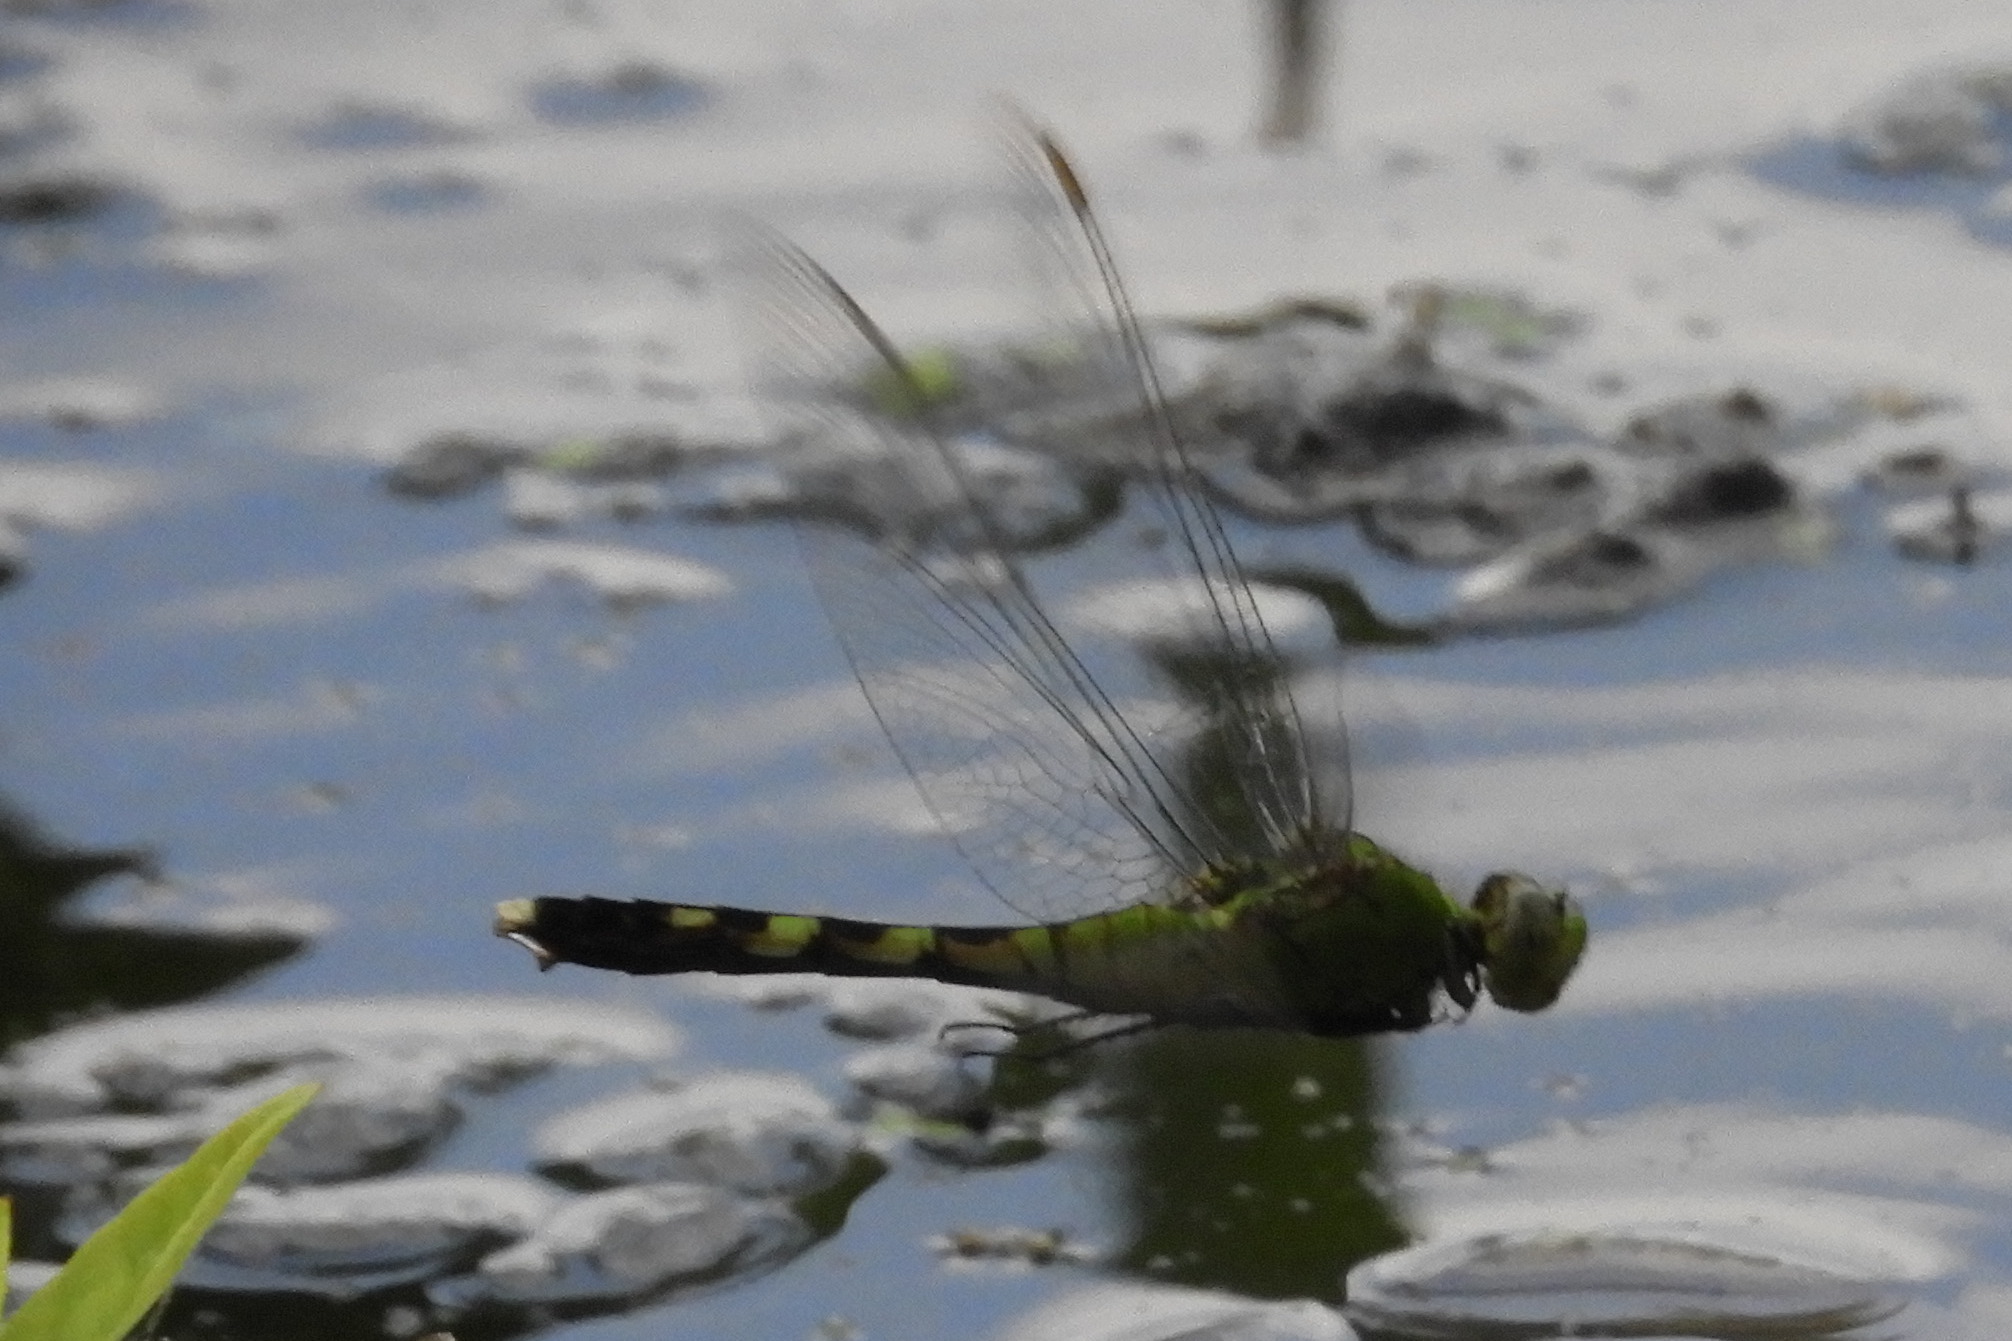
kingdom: Animalia
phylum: Arthropoda
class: Insecta
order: Odonata
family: Libellulidae
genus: Erythemis
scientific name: Erythemis simplicicollis
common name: Eastern pondhawk
